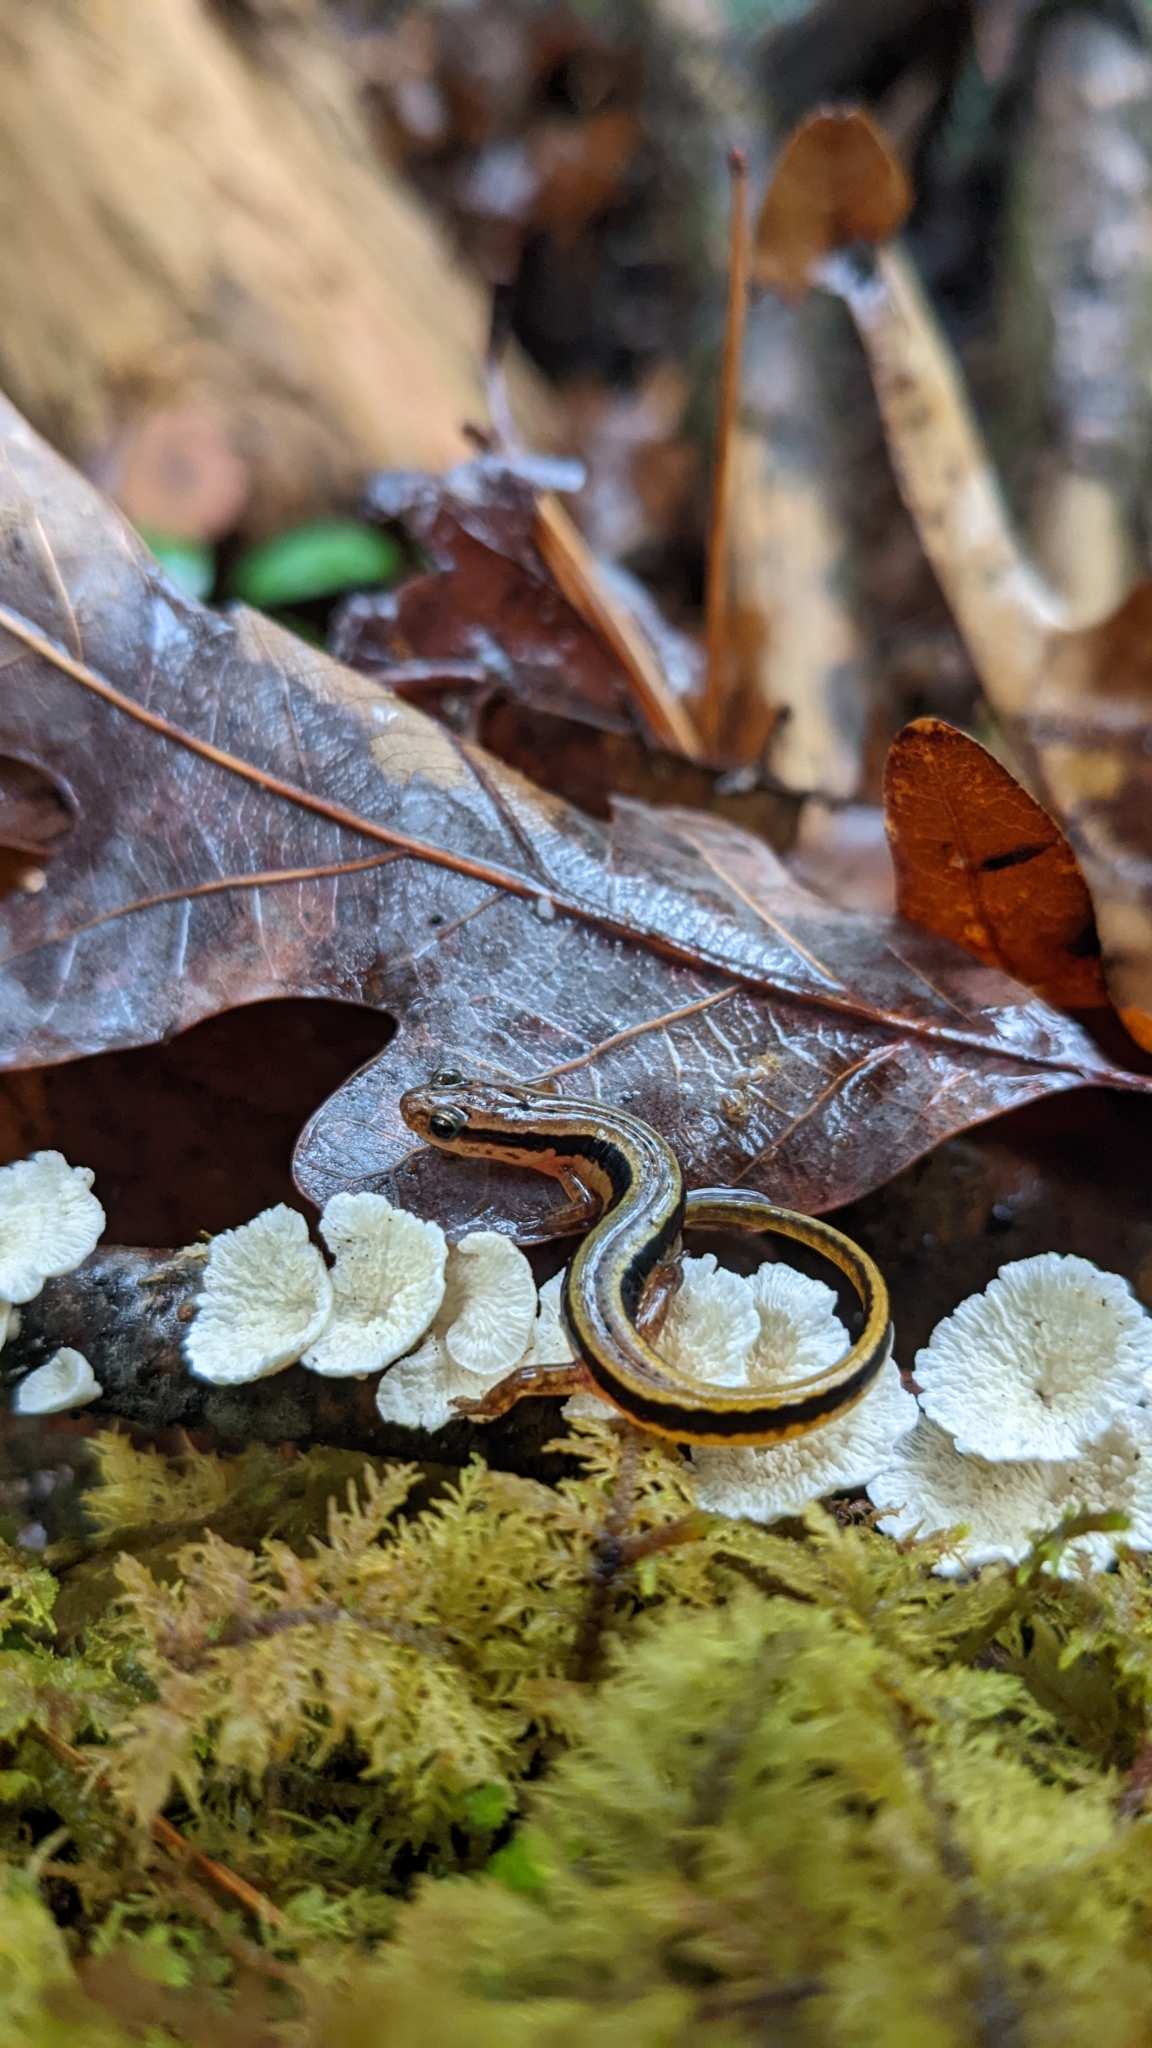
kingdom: Animalia
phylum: Chordata
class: Amphibia
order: Caudata
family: Plethodontidae
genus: Eurycea
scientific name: Eurycea wilderae
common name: Blue ridge two-lined salamander
